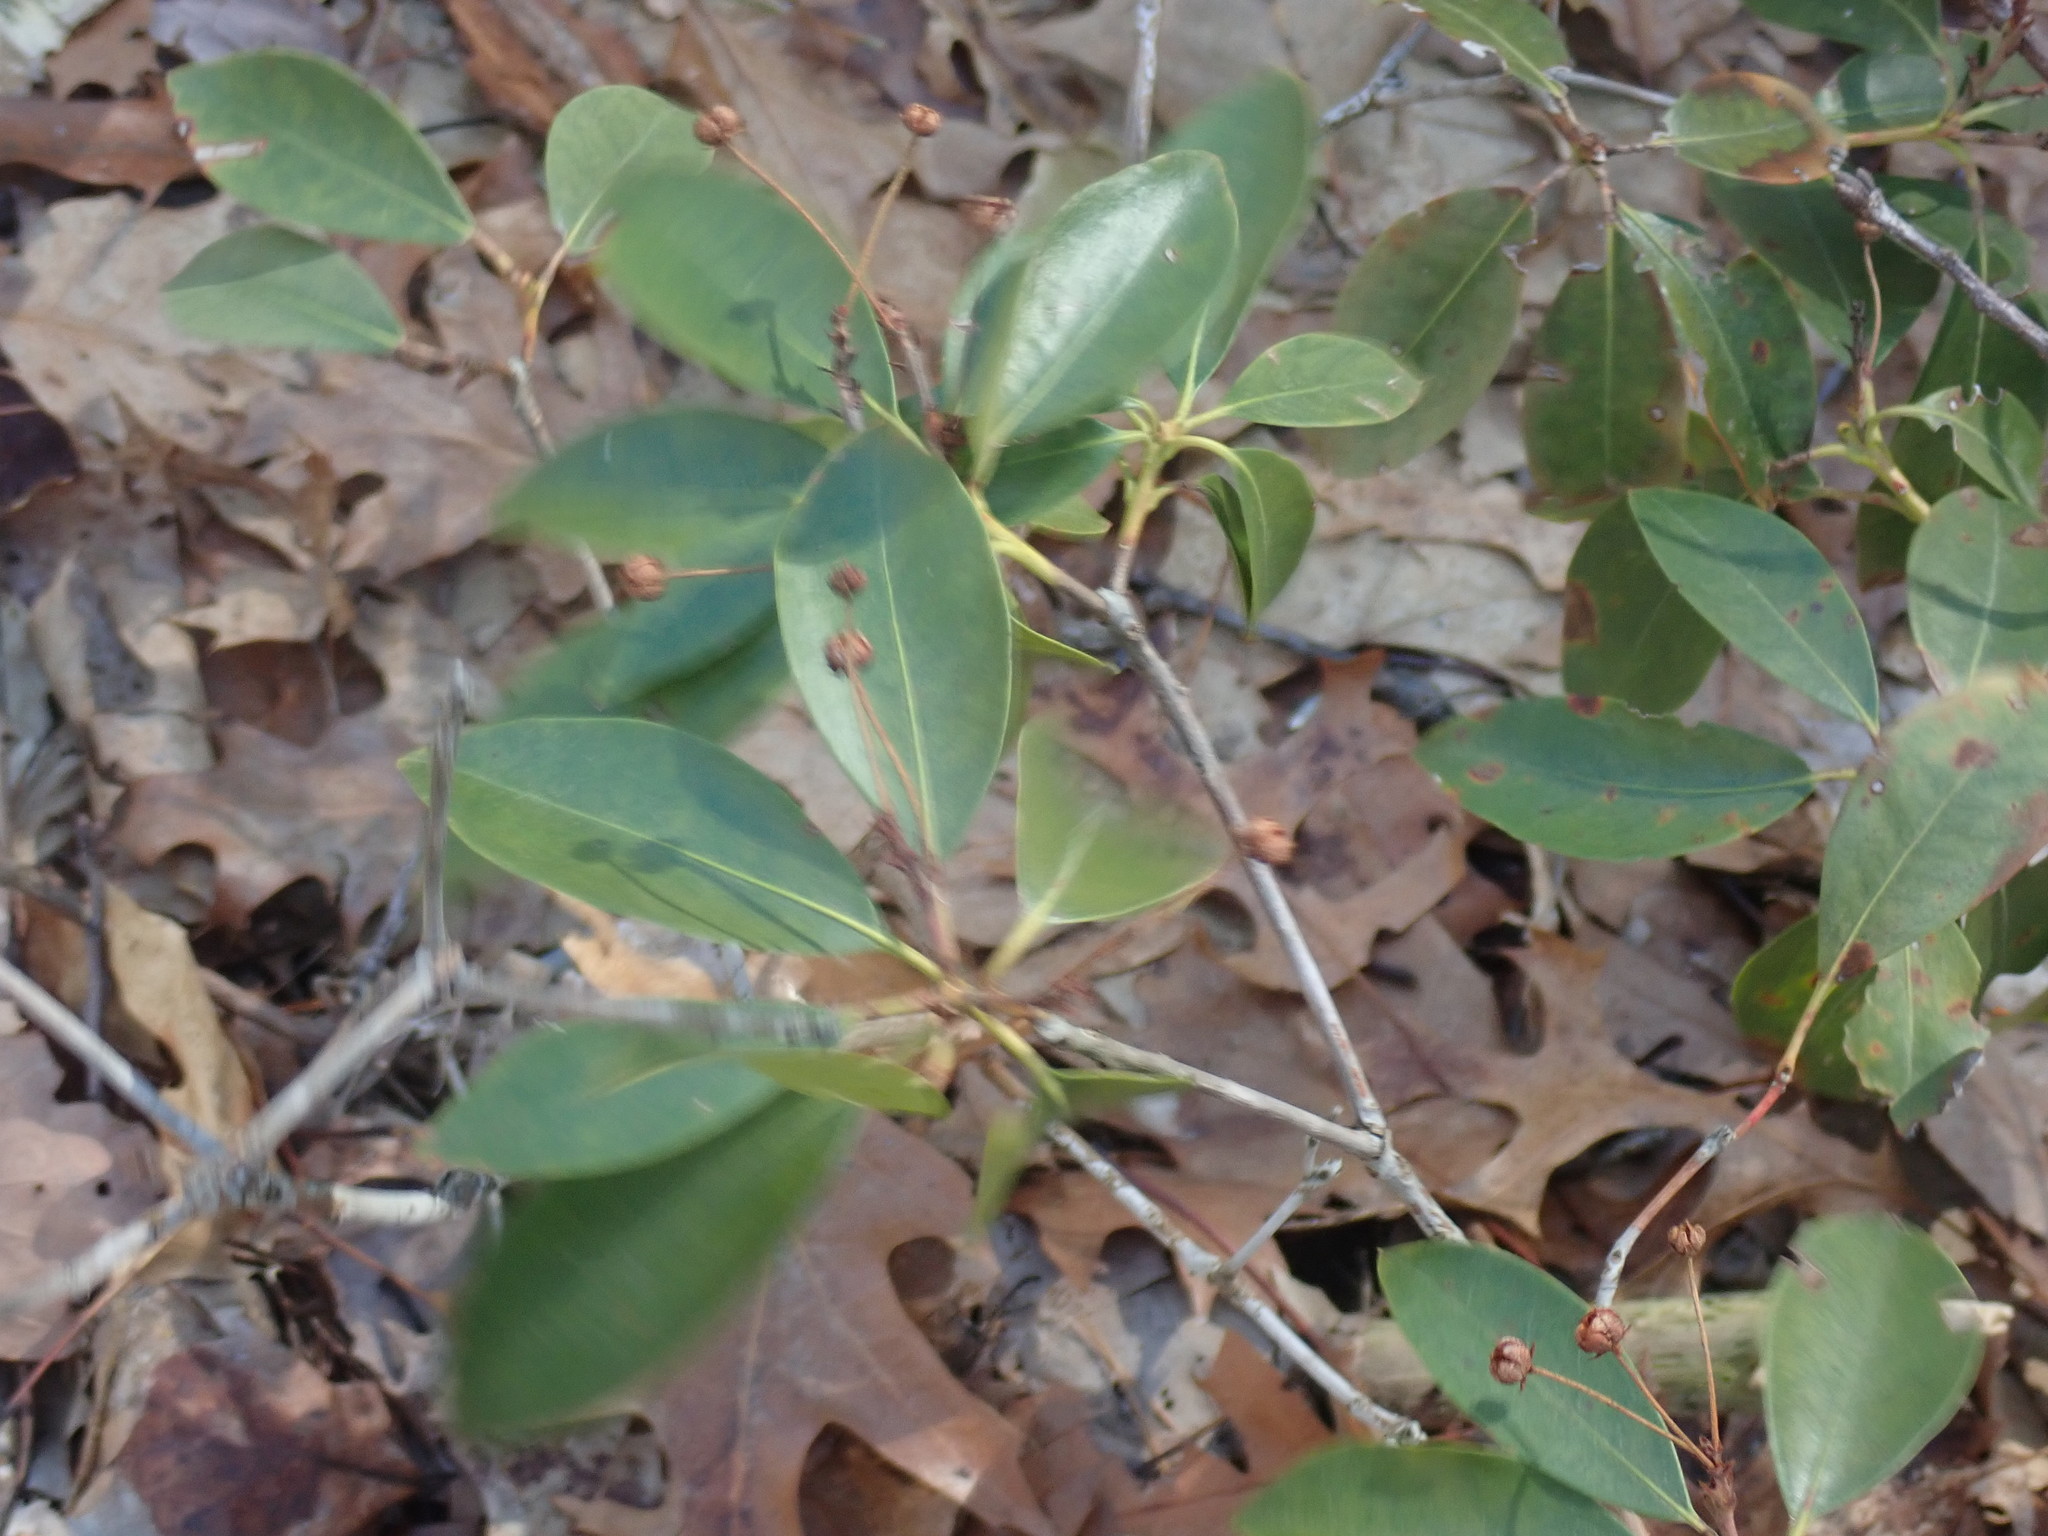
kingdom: Plantae
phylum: Tracheophyta
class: Magnoliopsida
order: Ericales
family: Ericaceae
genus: Kalmia
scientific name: Kalmia latifolia
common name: Mountain-laurel
